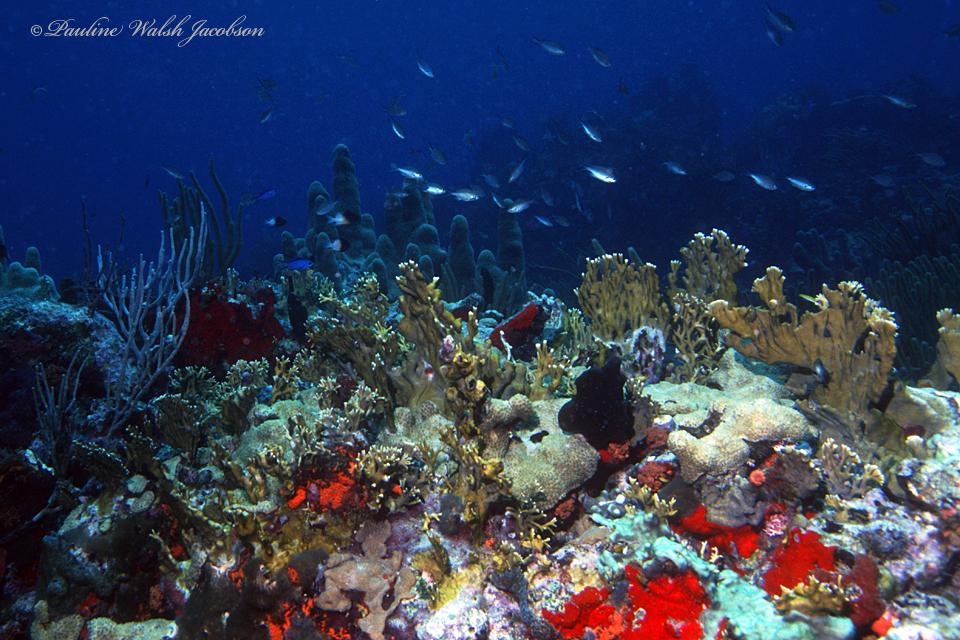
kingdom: Animalia
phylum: Cnidaria
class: Hydrozoa
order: Anthoathecata
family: Milleporidae
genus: Millepora
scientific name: Millepora alcicornis
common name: Branching fire coral
